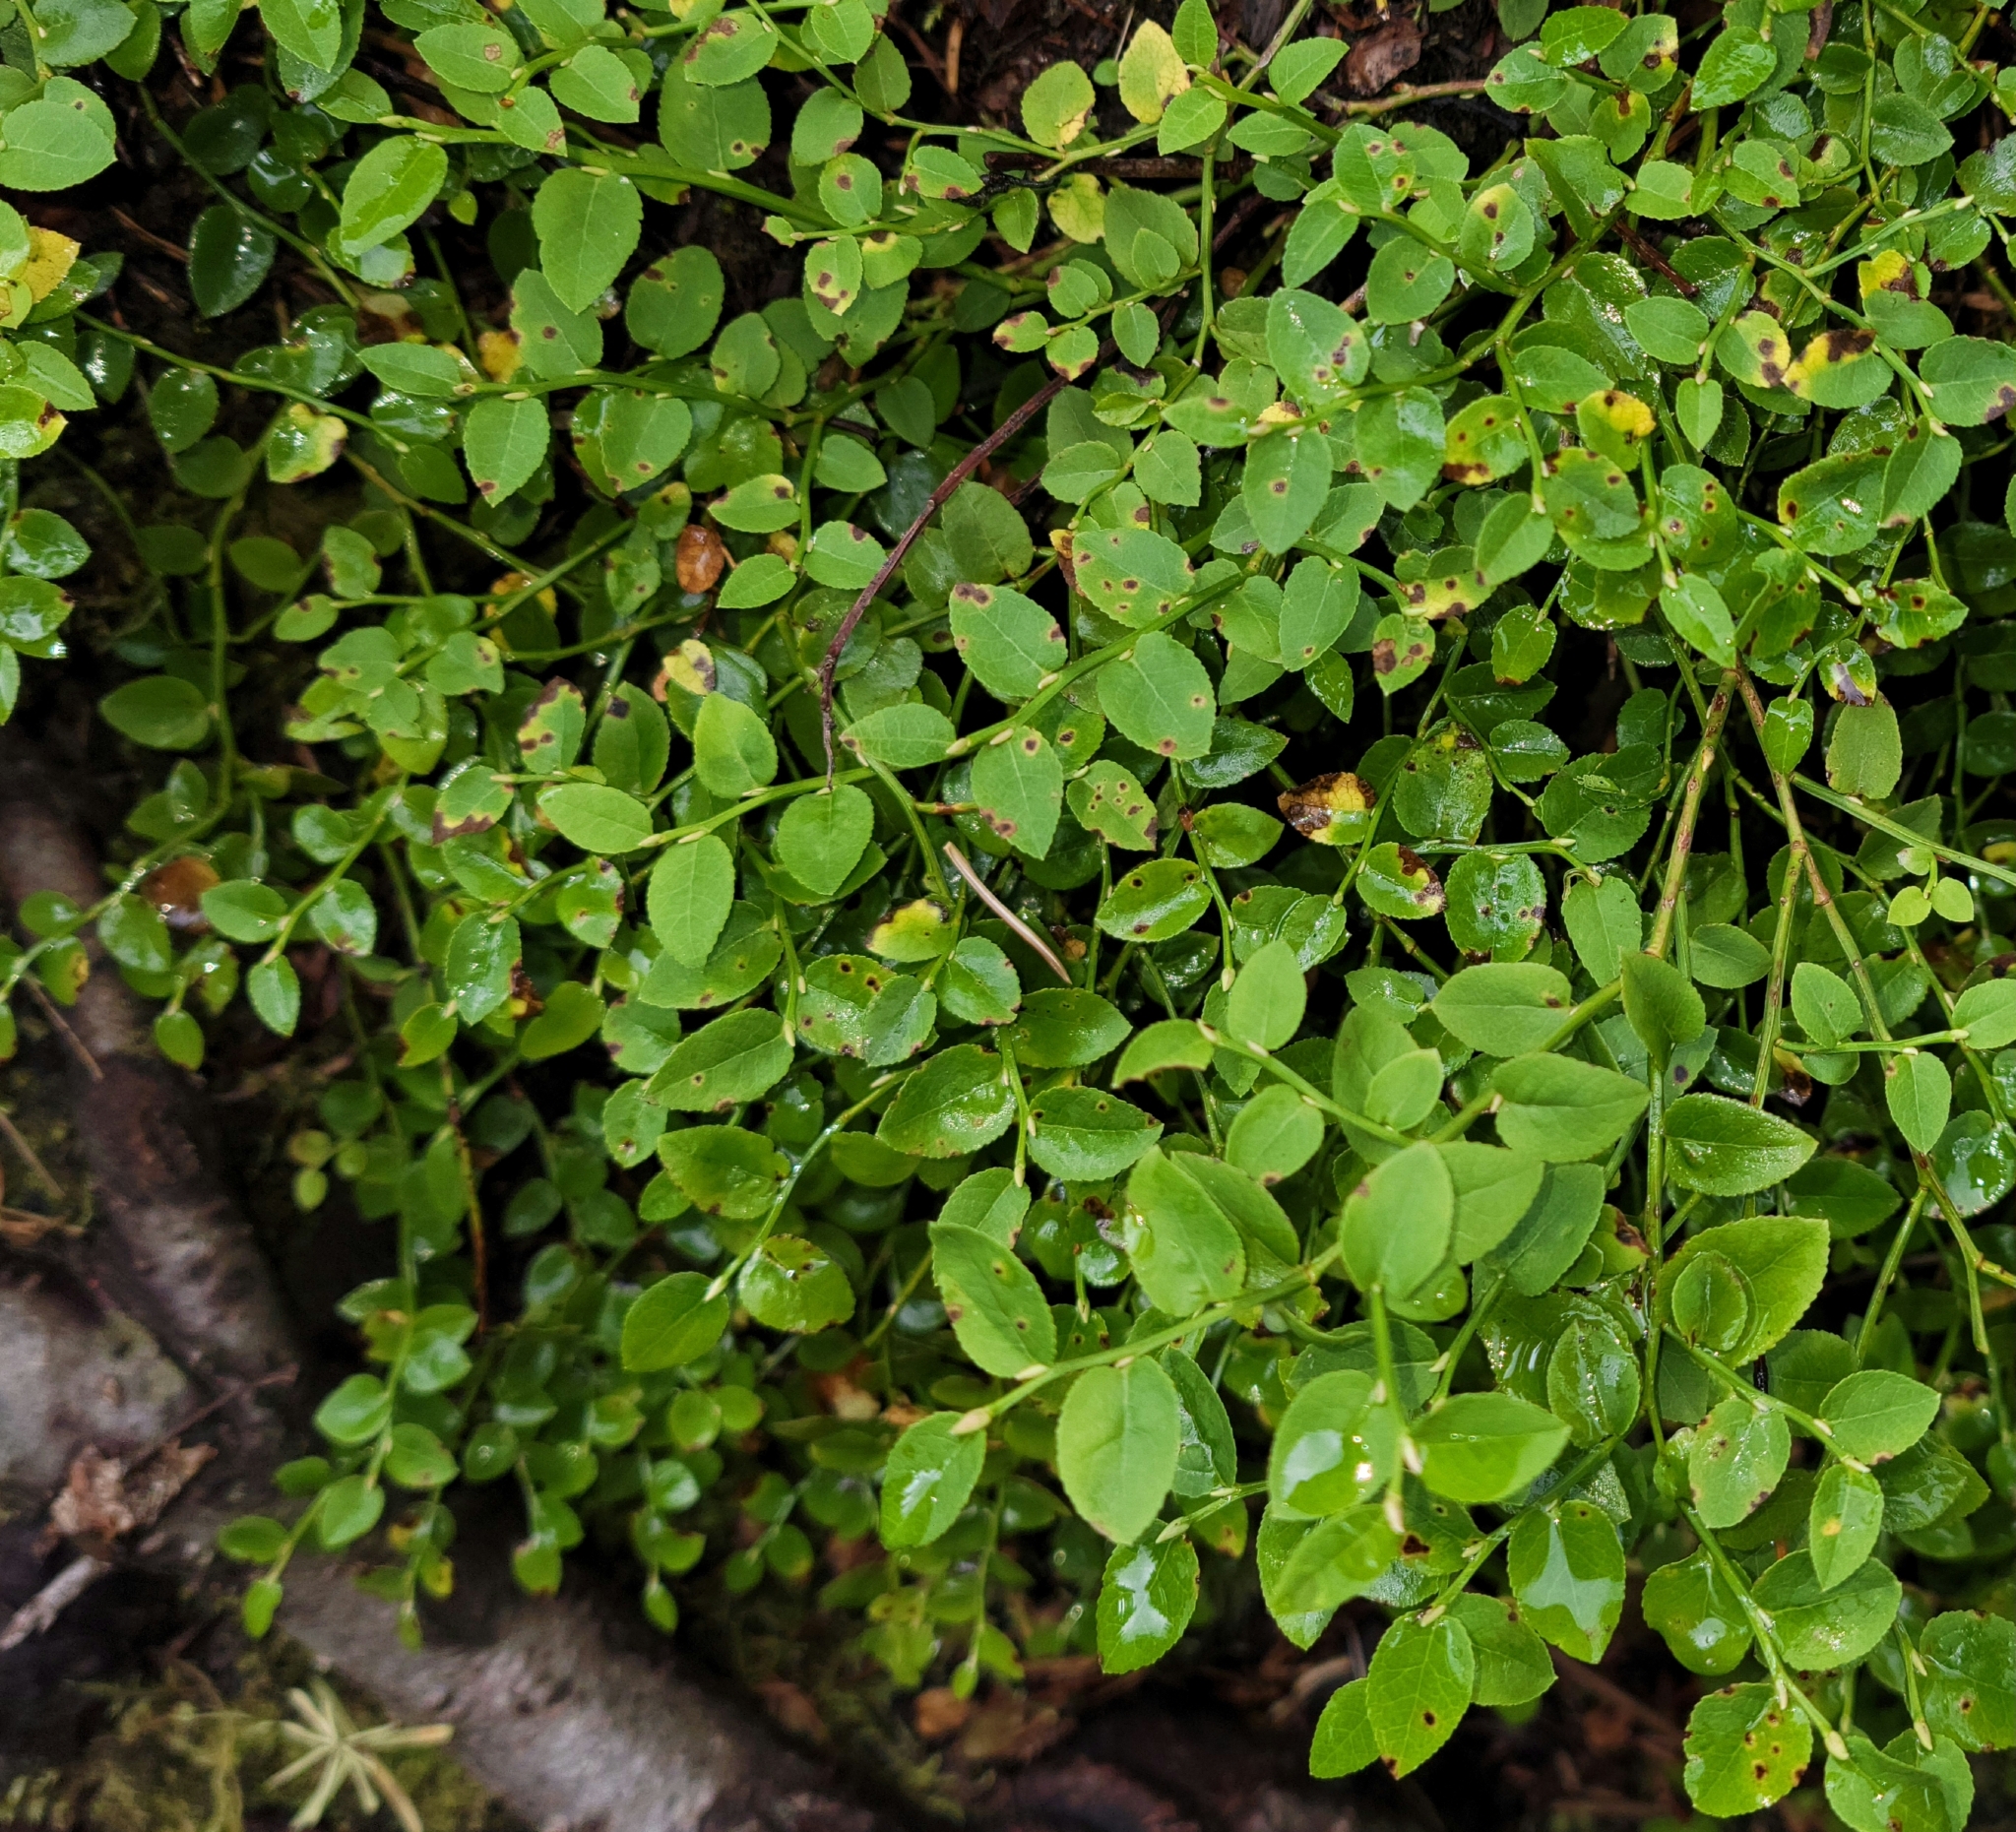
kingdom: Plantae
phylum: Tracheophyta
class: Magnoliopsida
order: Ericales
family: Ericaceae
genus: Vaccinium
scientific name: Vaccinium scoparium
